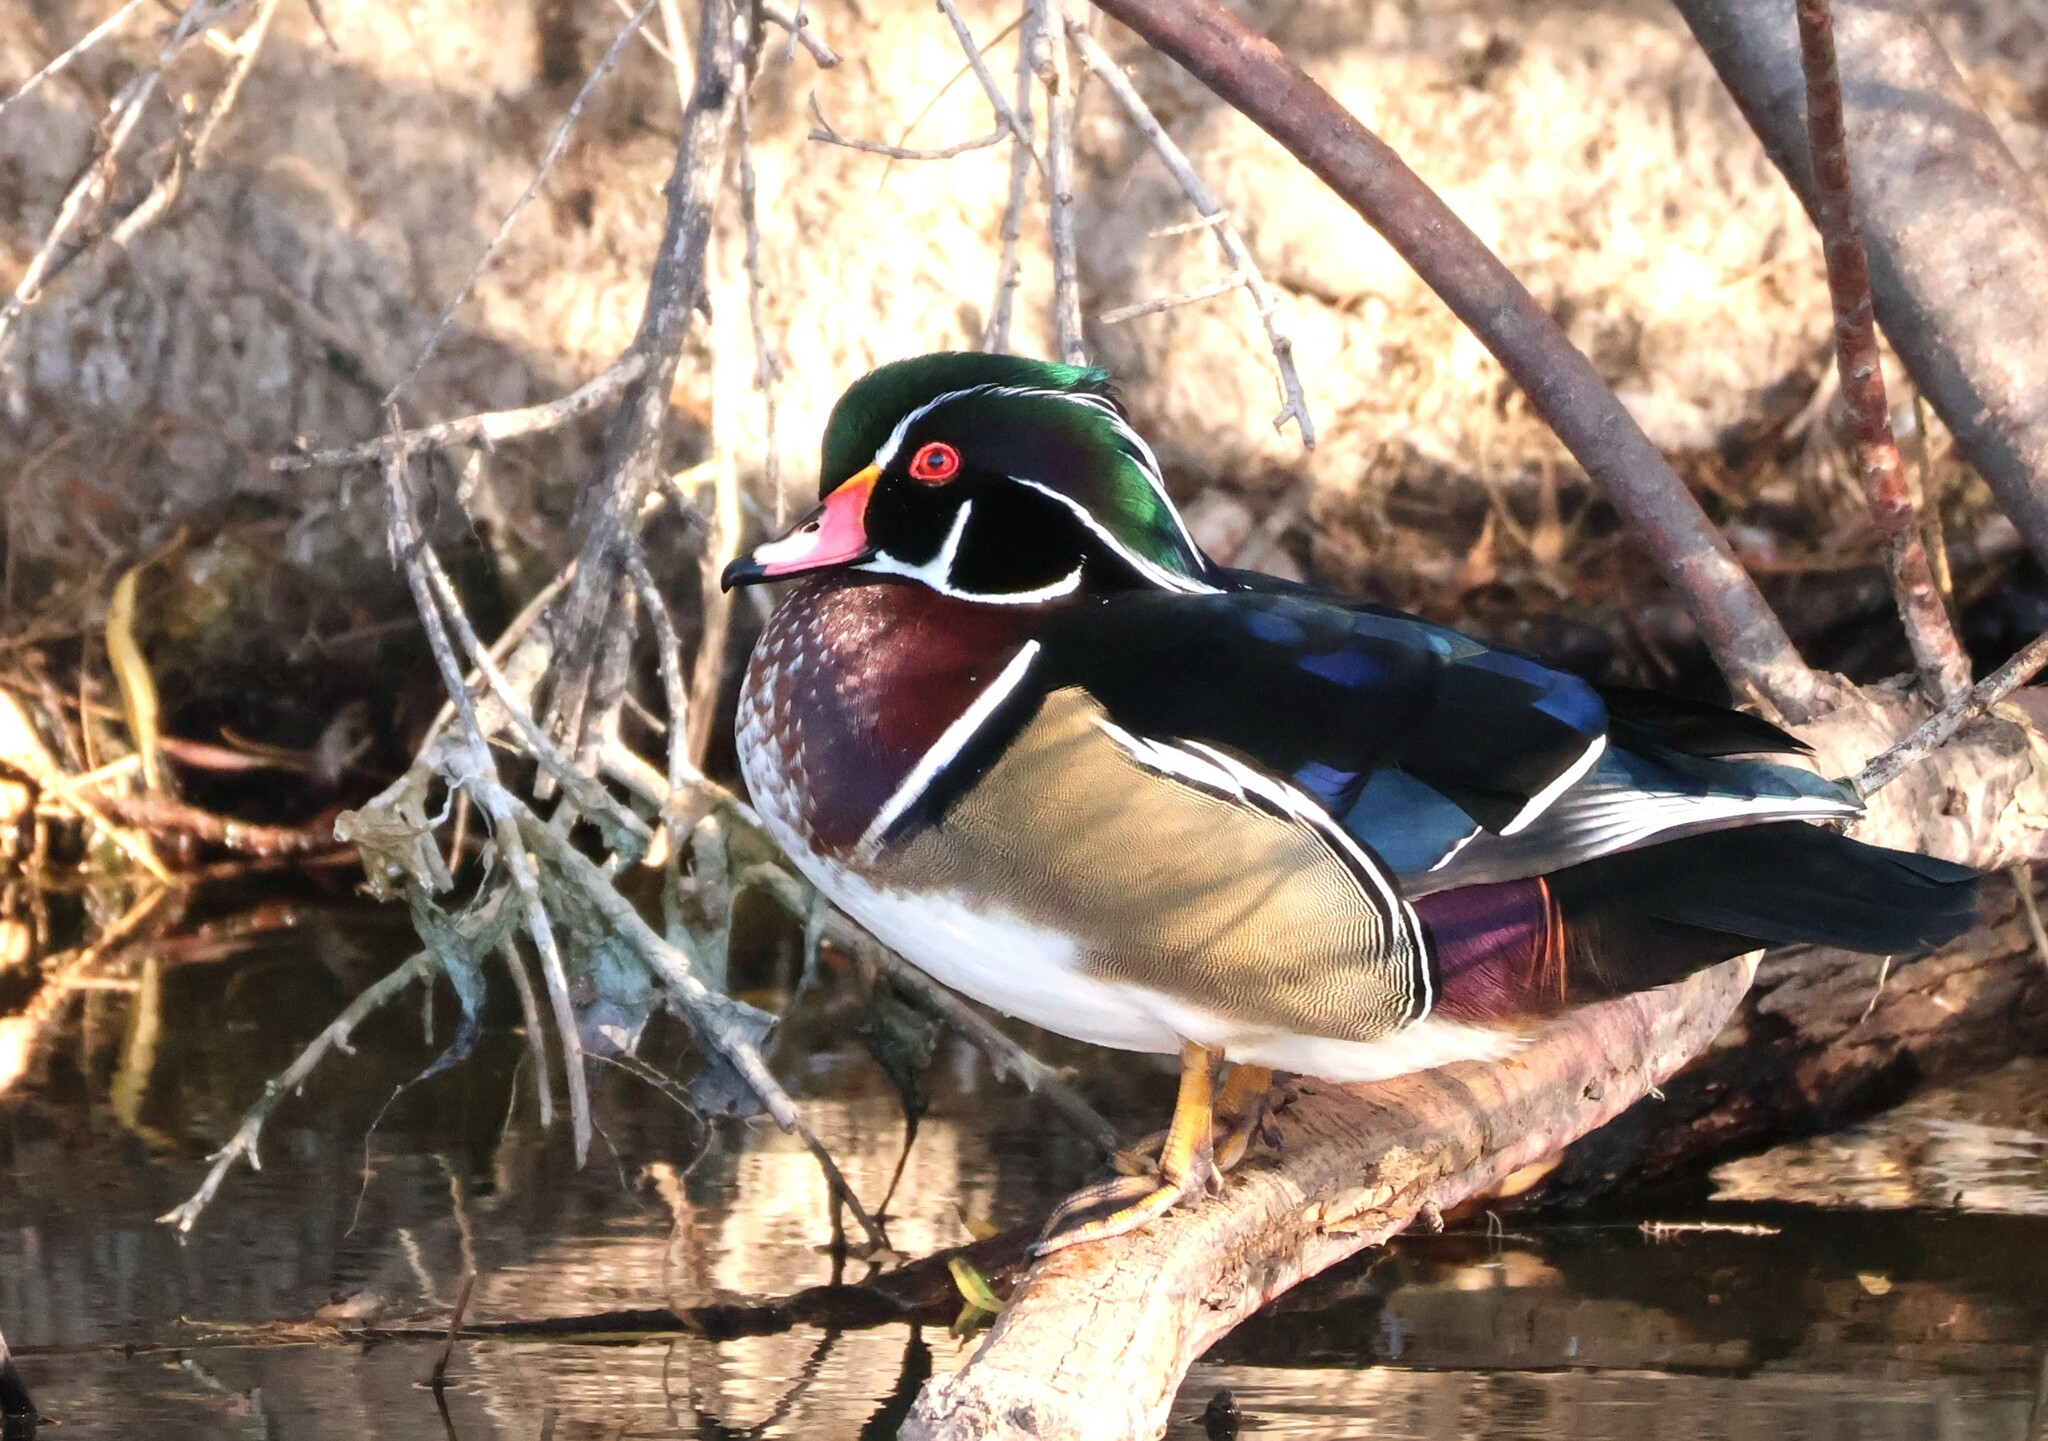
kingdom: Animalia
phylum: Chordata
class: Aves
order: Anseriformes
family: Anatidae
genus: Aix
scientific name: Aix sponsa
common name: Wood duck
